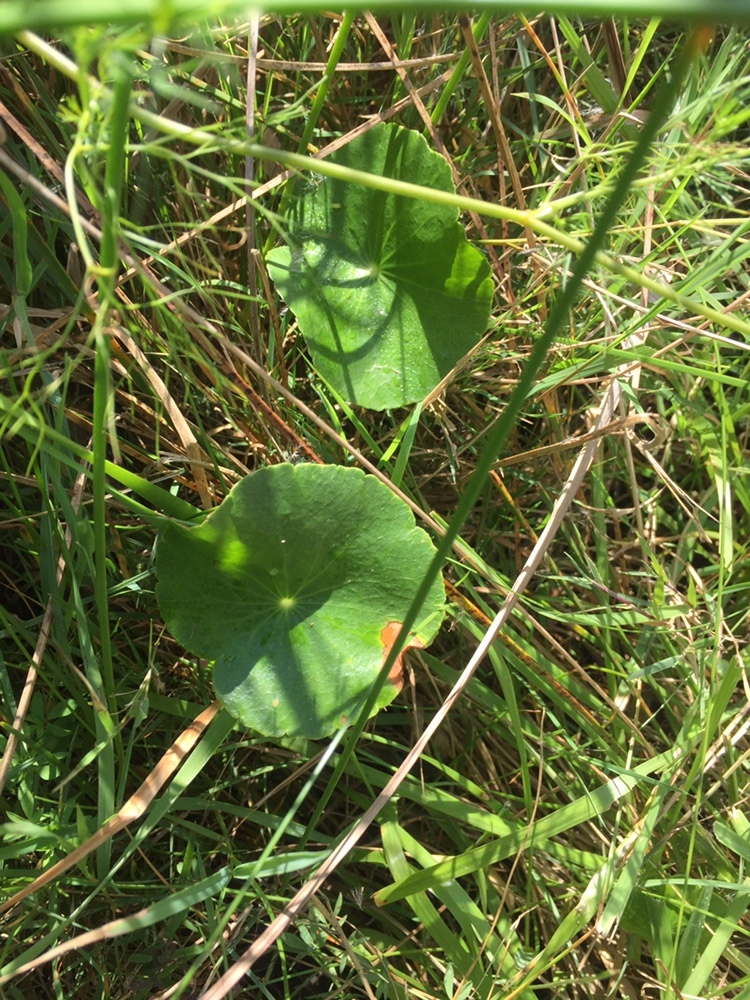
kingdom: Plantae
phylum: Tracheophyta
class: Magnoliopsida
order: Apiales
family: Araliaceae
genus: Hydrocotyle
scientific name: Hydrocotyle bonariensis
